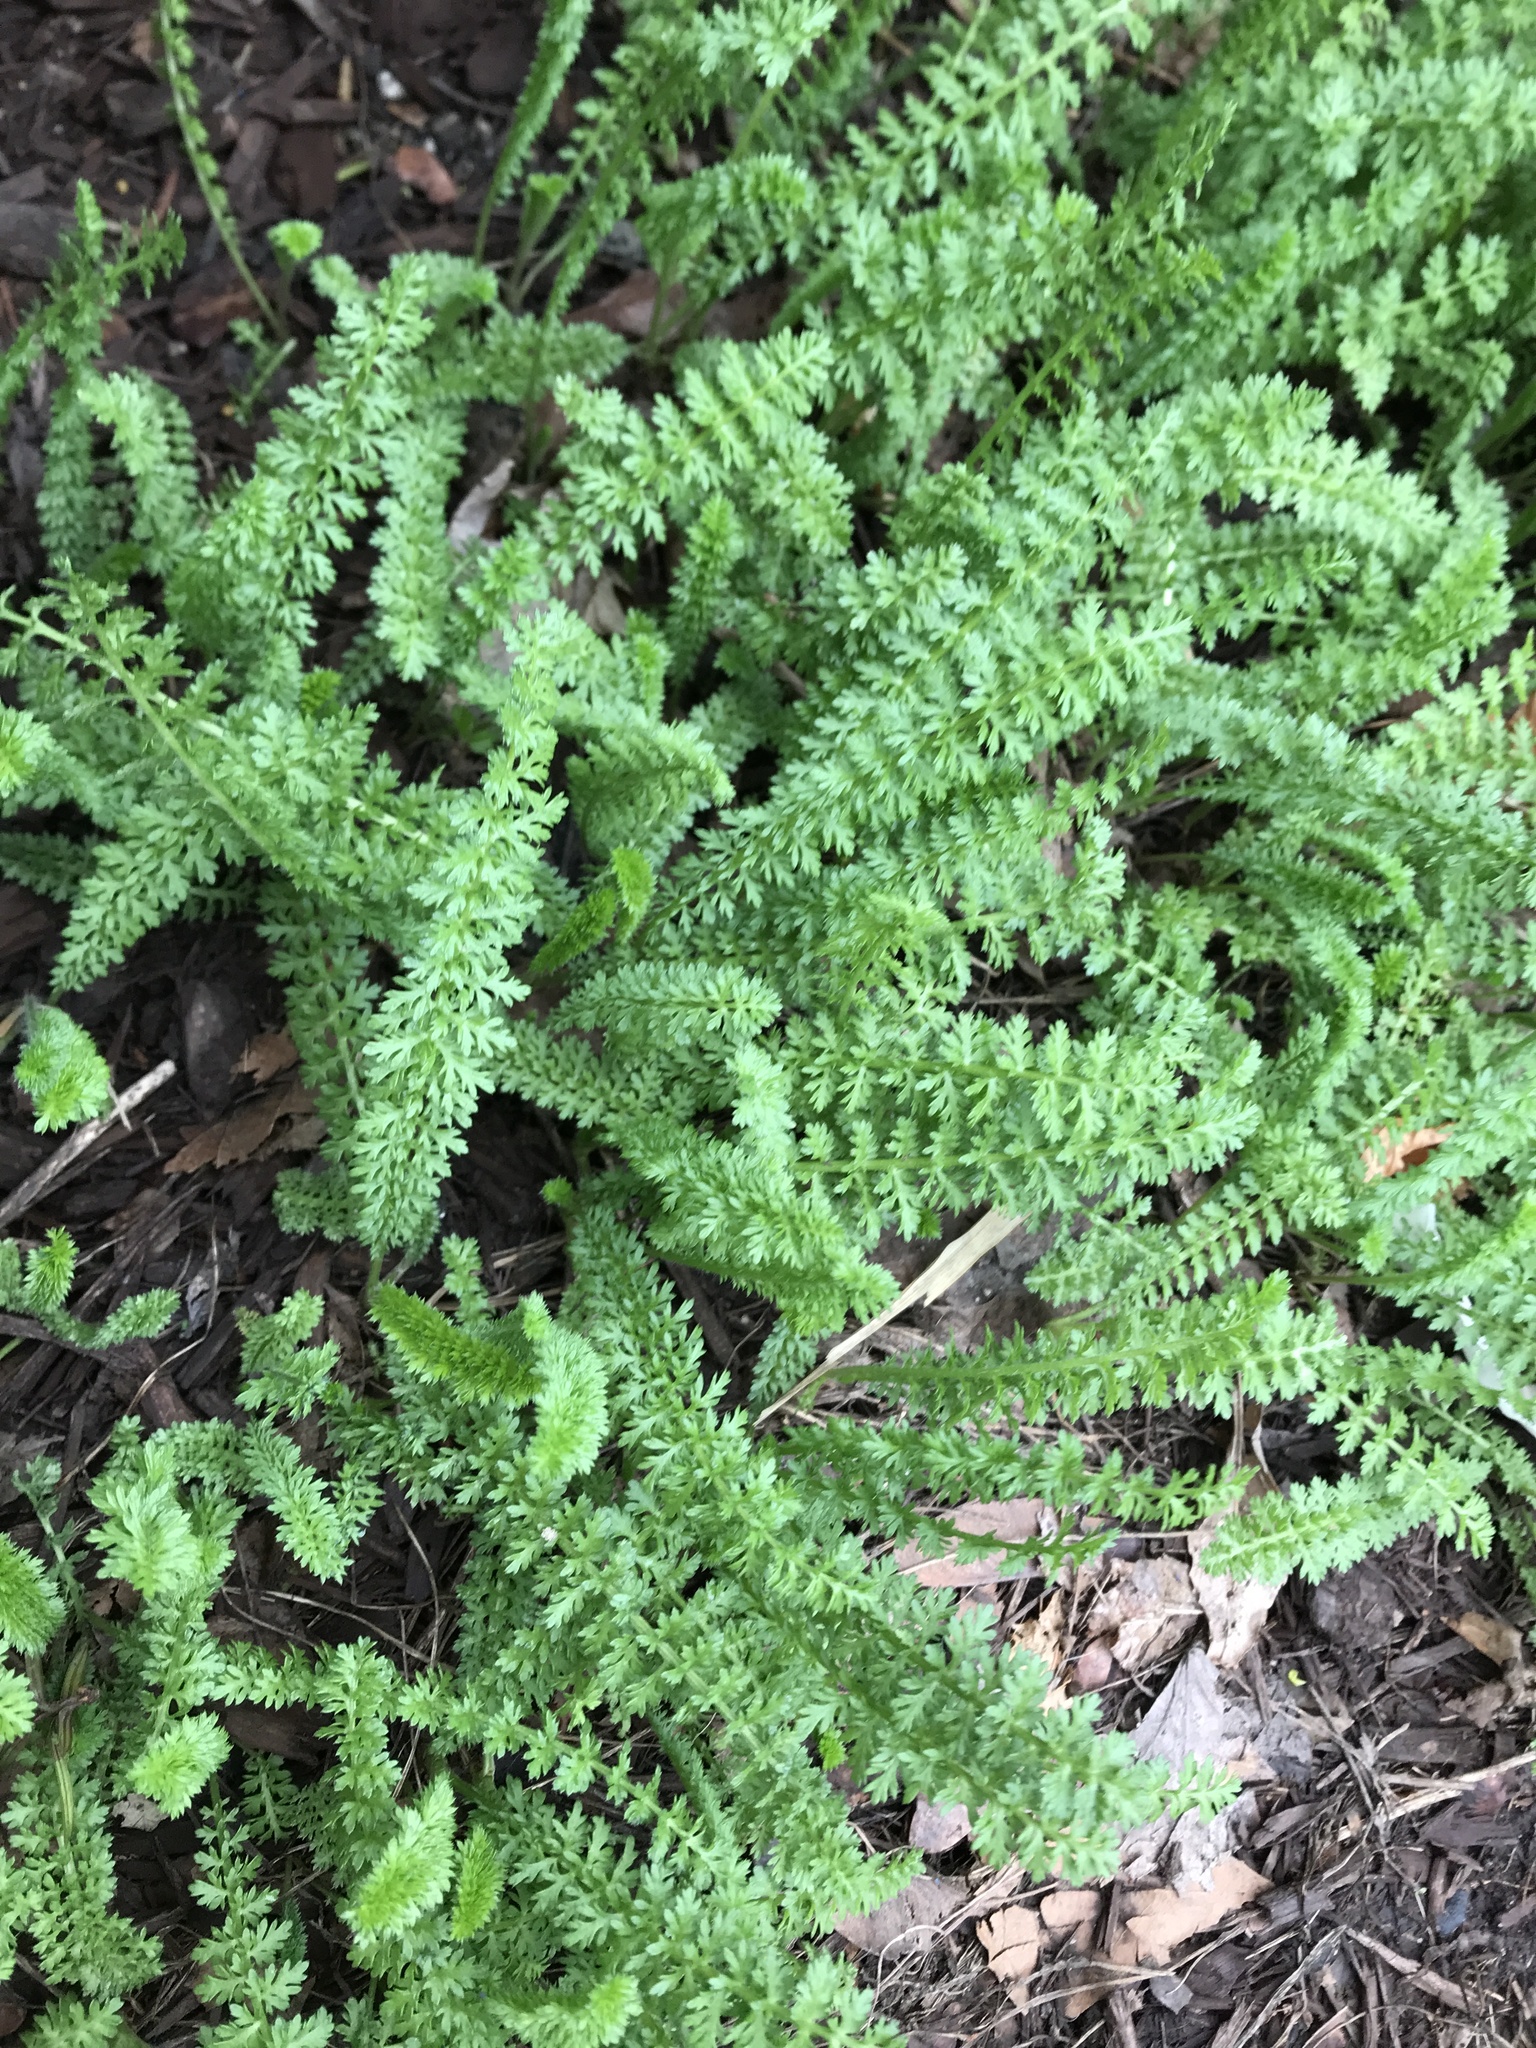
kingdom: Plantae
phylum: Tracheophyta
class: Magnoliopsida
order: Asterales
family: Asteraceae
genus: Achillea
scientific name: Achillea millefolium
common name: Yarrow
